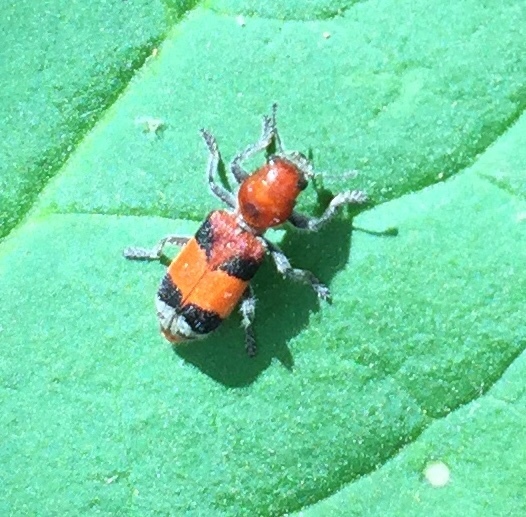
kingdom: Animalia
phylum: Arthropoda
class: Insecta
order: Coleoptera
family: Cleridae
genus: Enoclerus
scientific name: Enoclerus ichneumoneus
